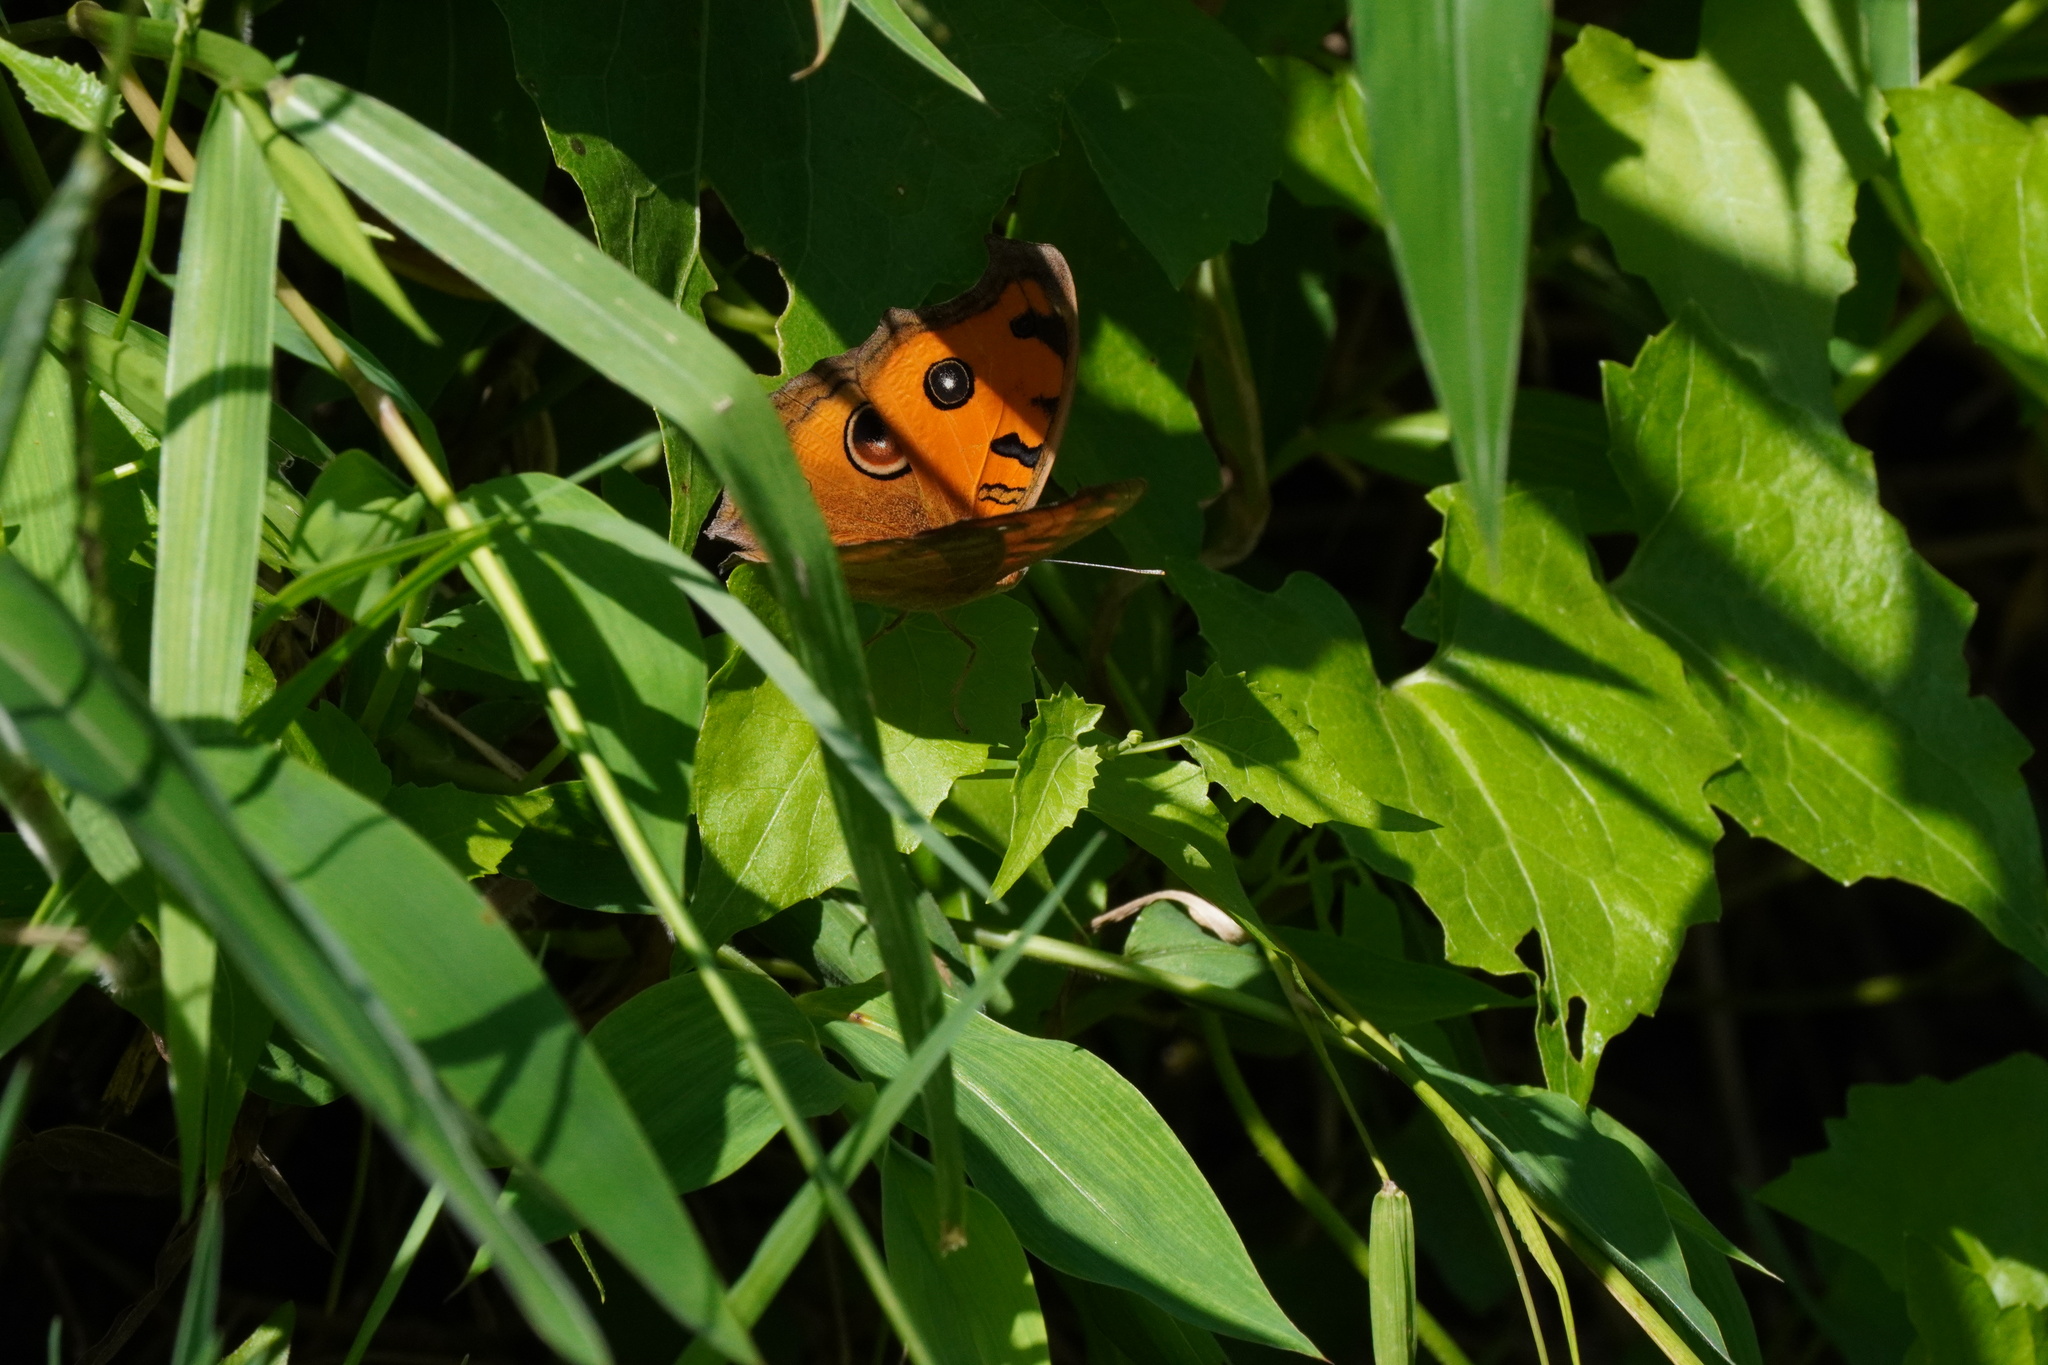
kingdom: Animalia
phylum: Arthropoda
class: Insecta
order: Lepidoptera
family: Nymphalidae
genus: Junonia
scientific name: Junonia almana
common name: Peacock pansy
